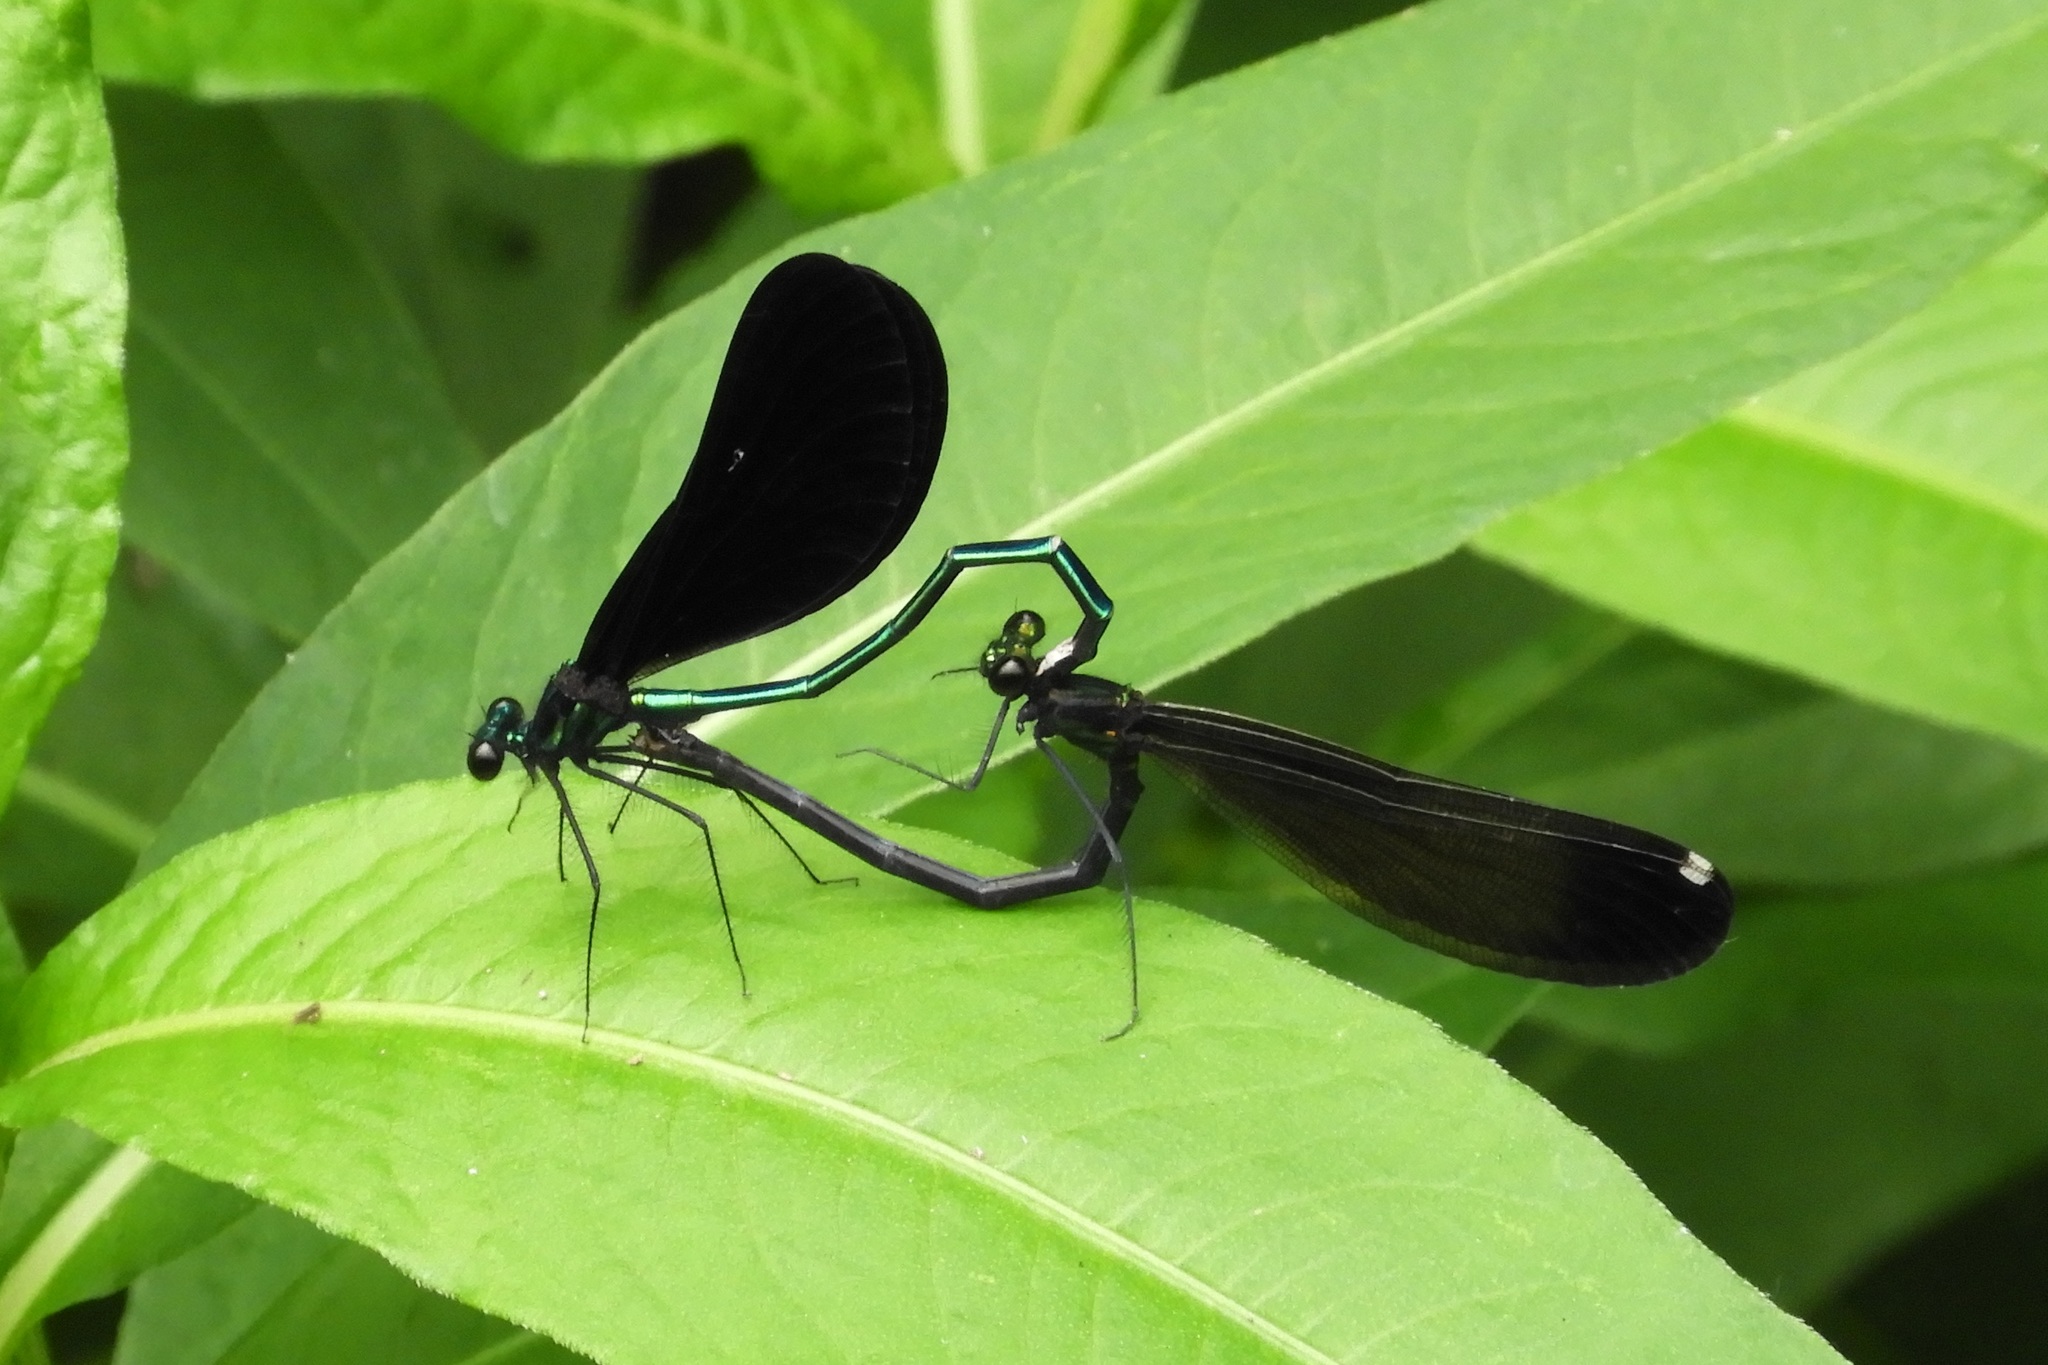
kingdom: Animalia
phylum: Arthropoda
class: Insecta
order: Odonata
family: Calopterygidae
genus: Calopteryx
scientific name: Calopteryx maculata
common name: Ebony jewelwing
